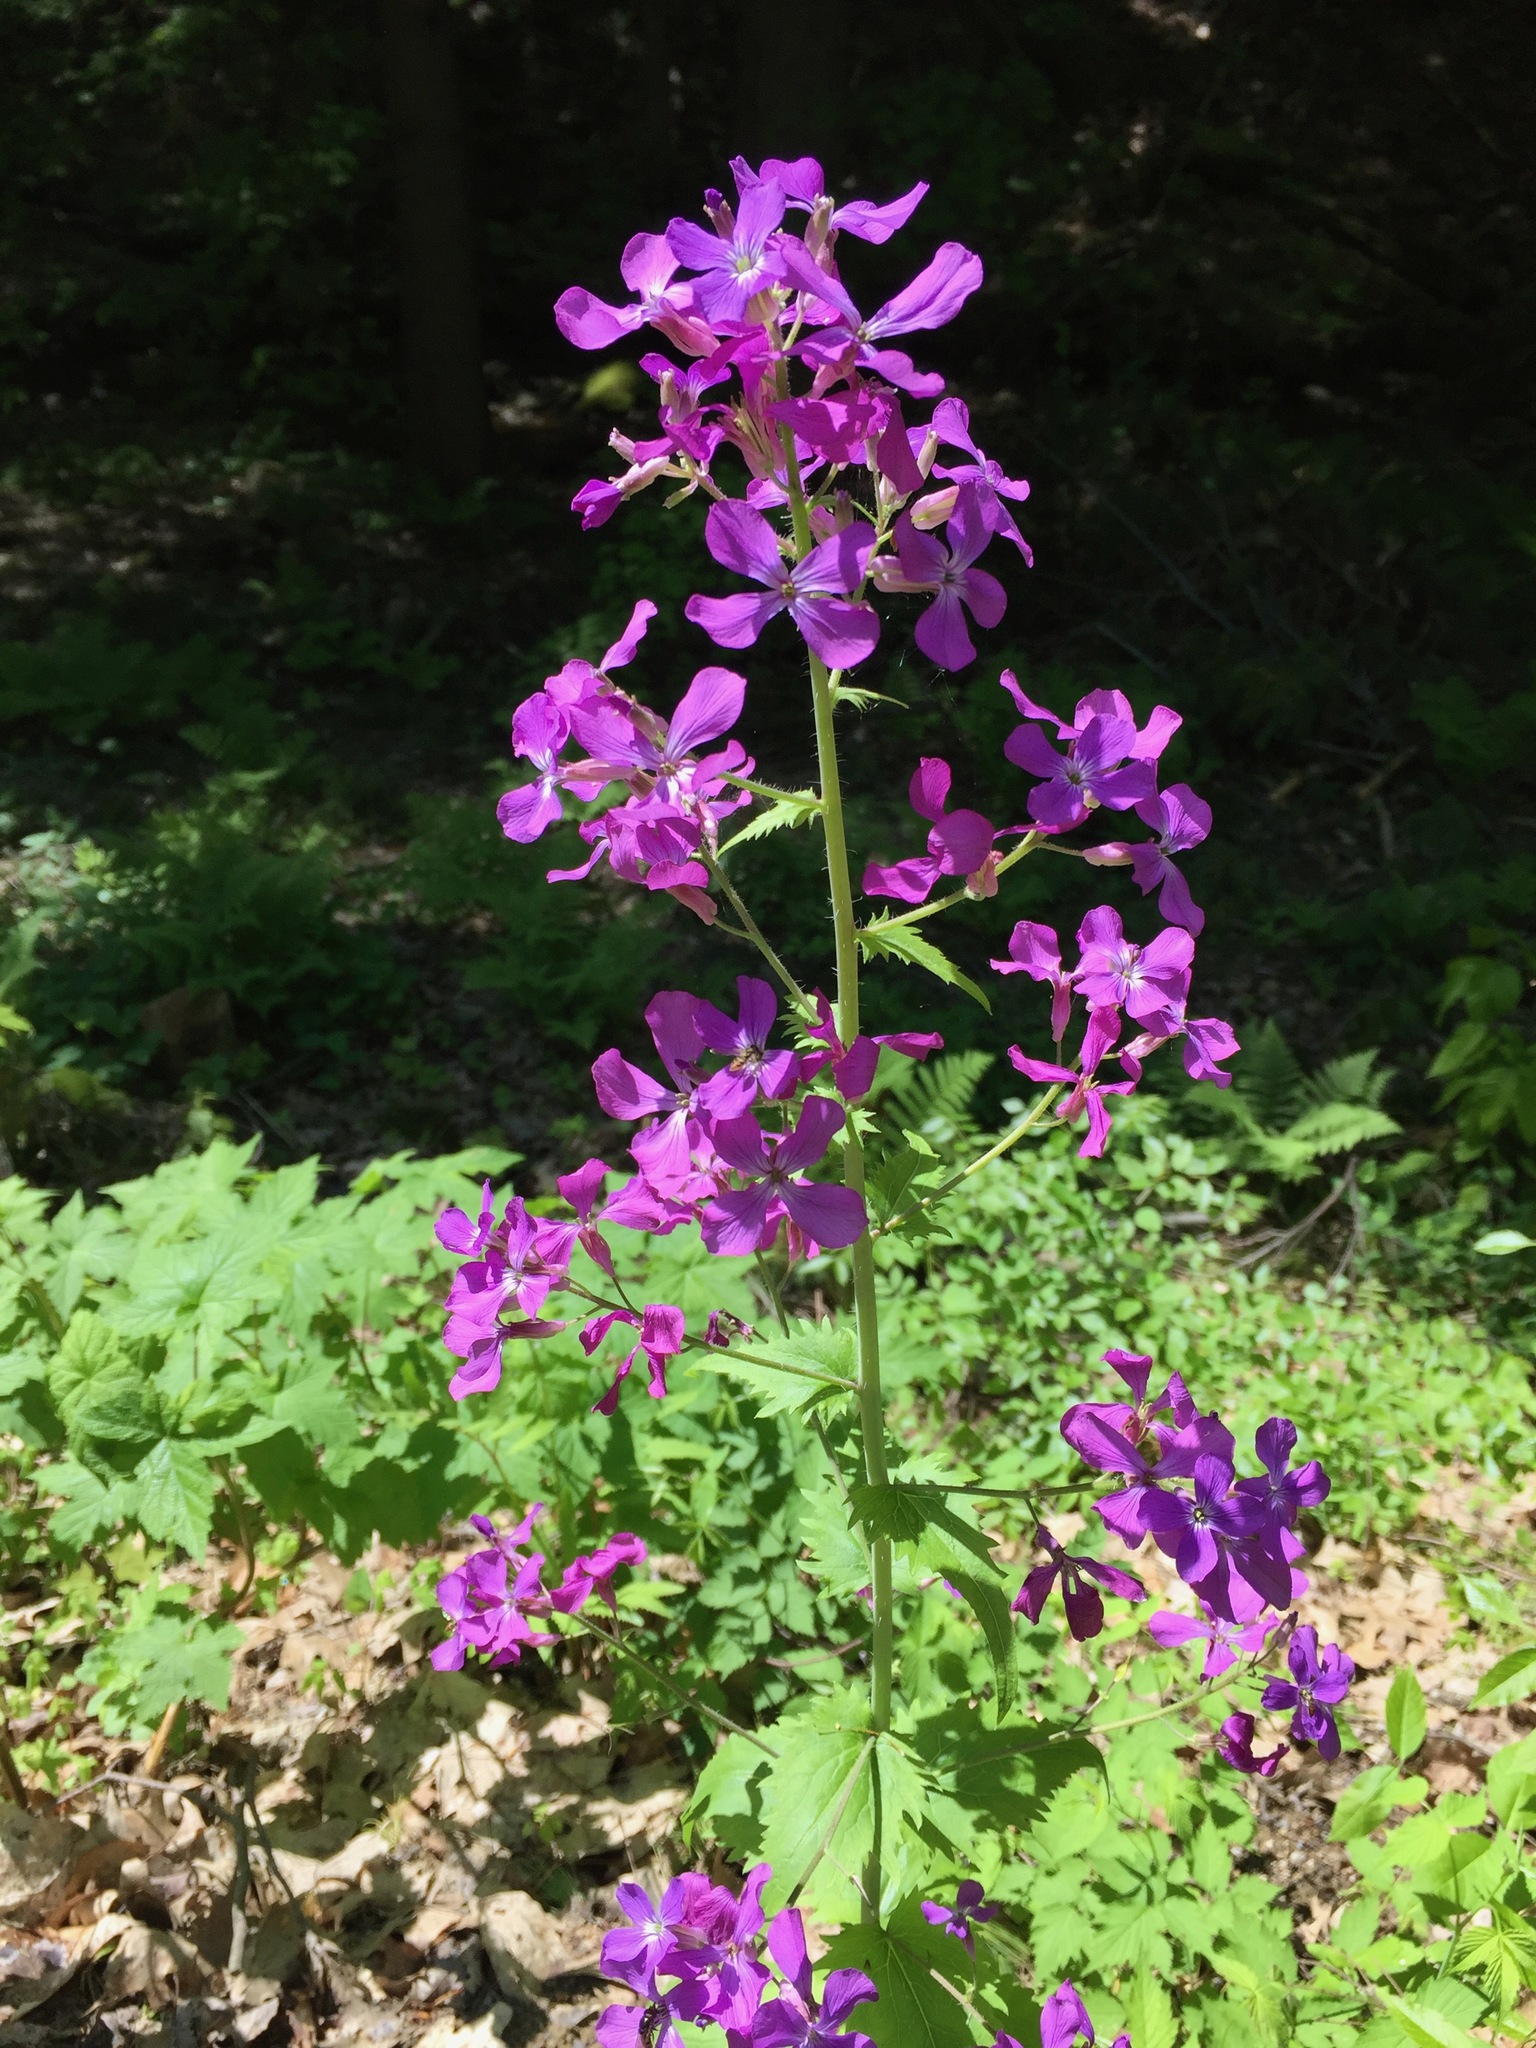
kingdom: Plantae
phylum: Tracheophyta
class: Magnoliopsida
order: Brassicales
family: Brassicaceae
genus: Lunaria
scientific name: Lunaria annua
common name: Honesty
